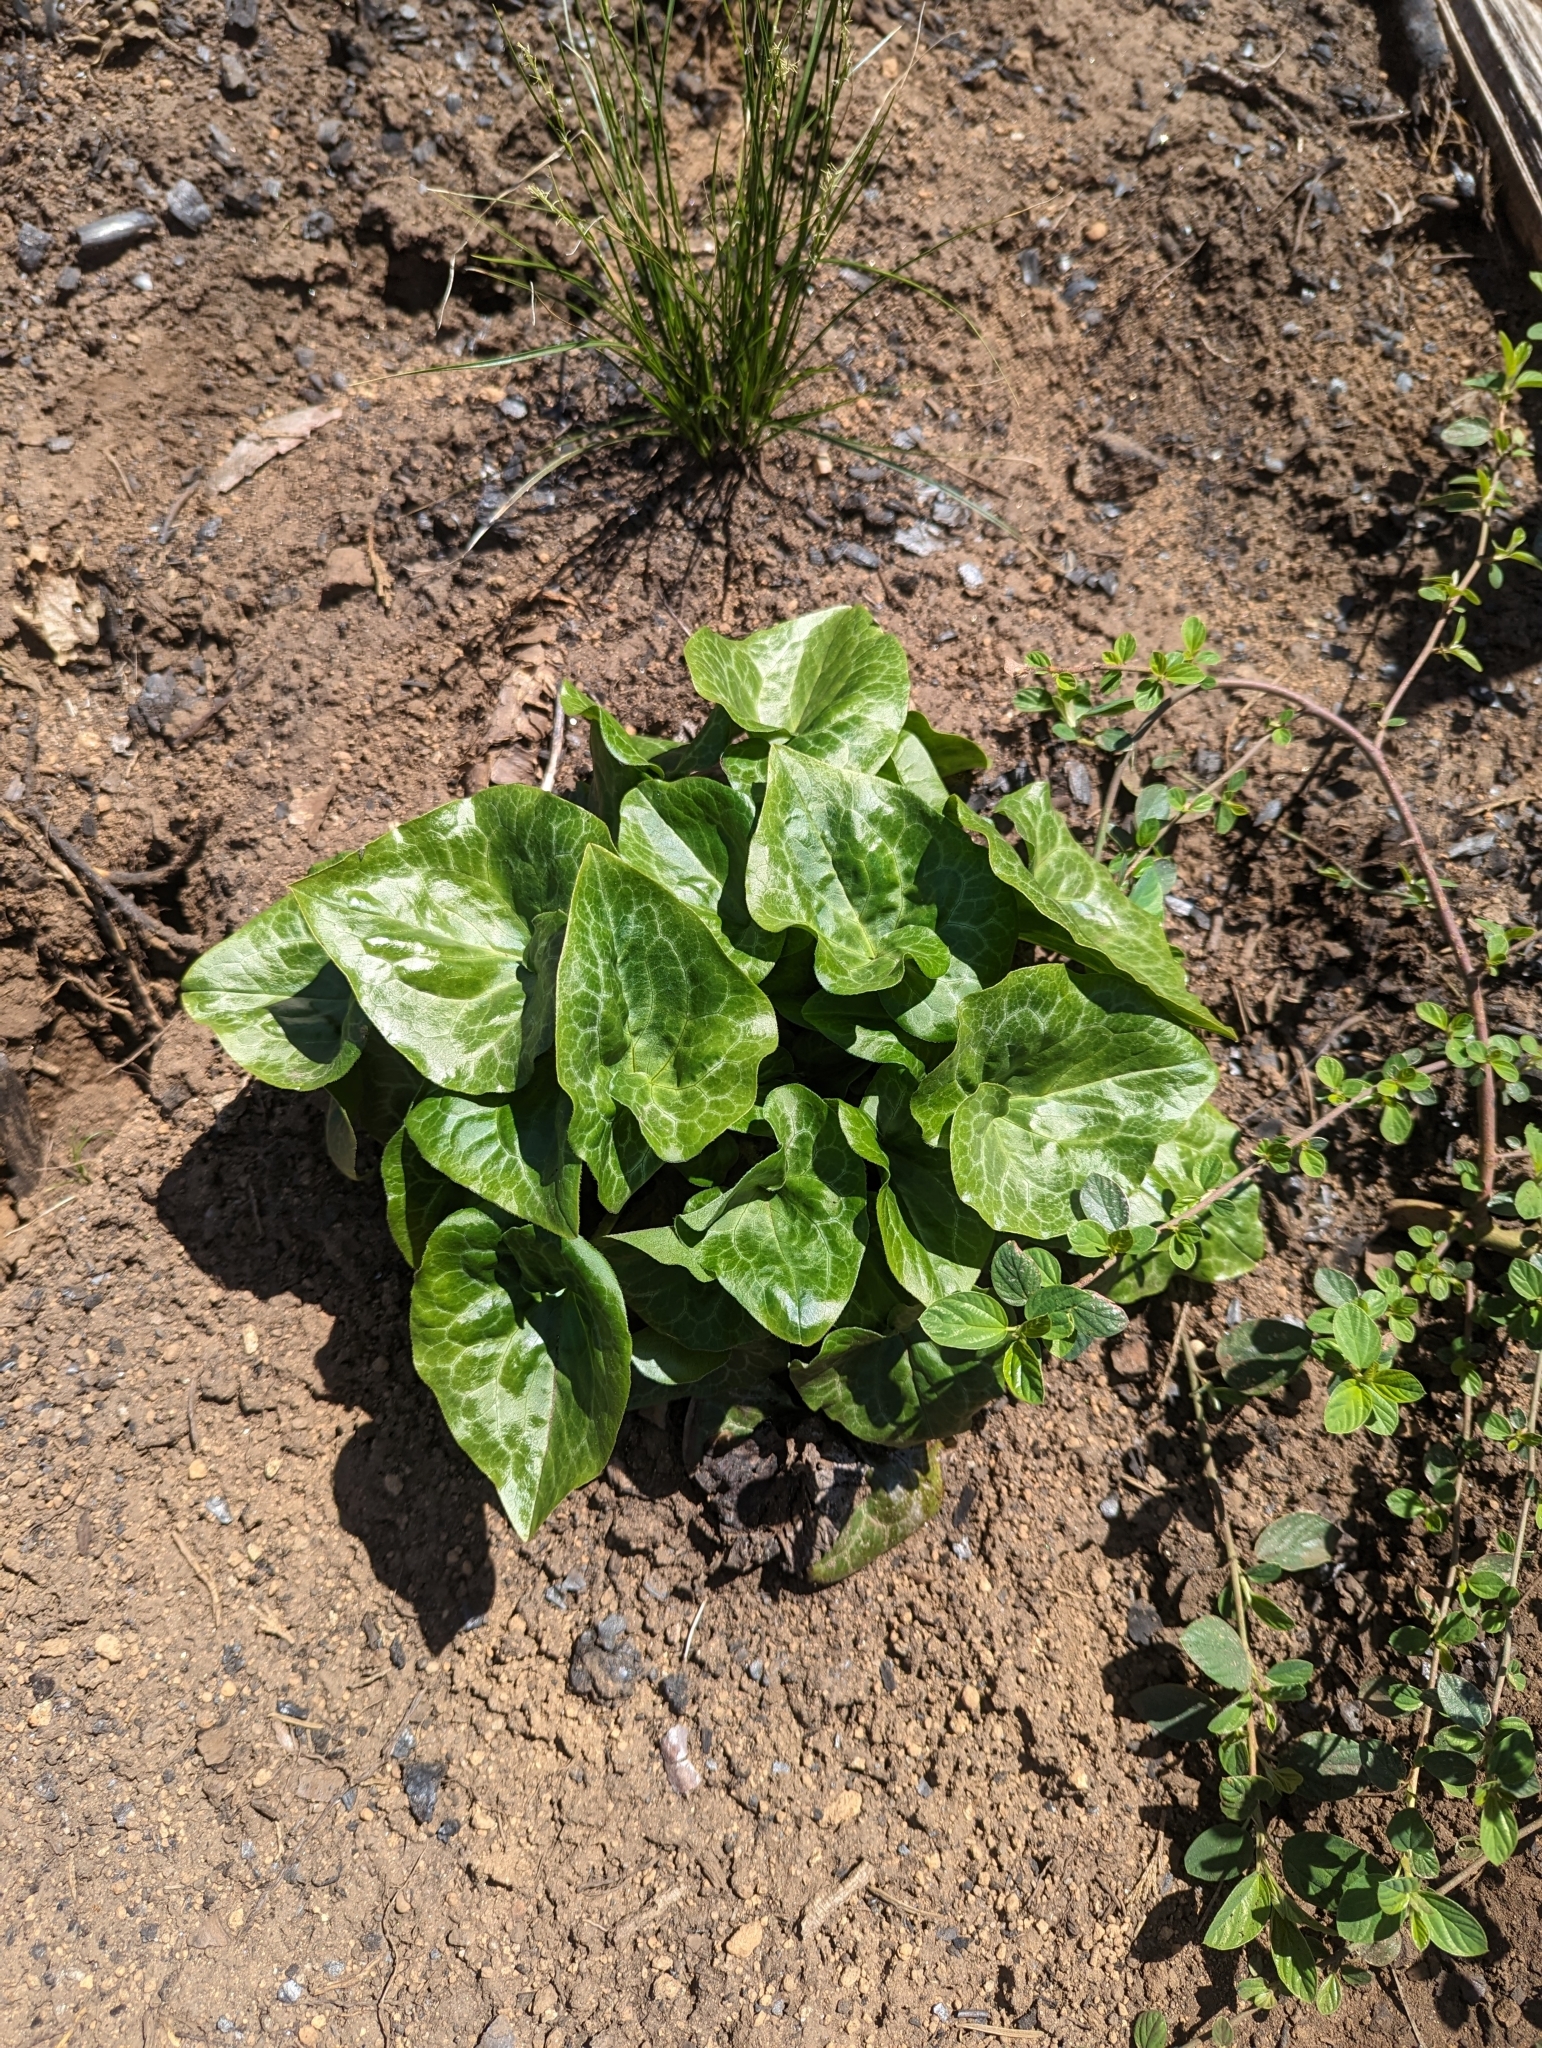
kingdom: Plantae
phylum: Tracheophyta
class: Magnoliopsida
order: Piperales
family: Aristolochiaceae
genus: Asarum
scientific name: Asarum hartwegii
